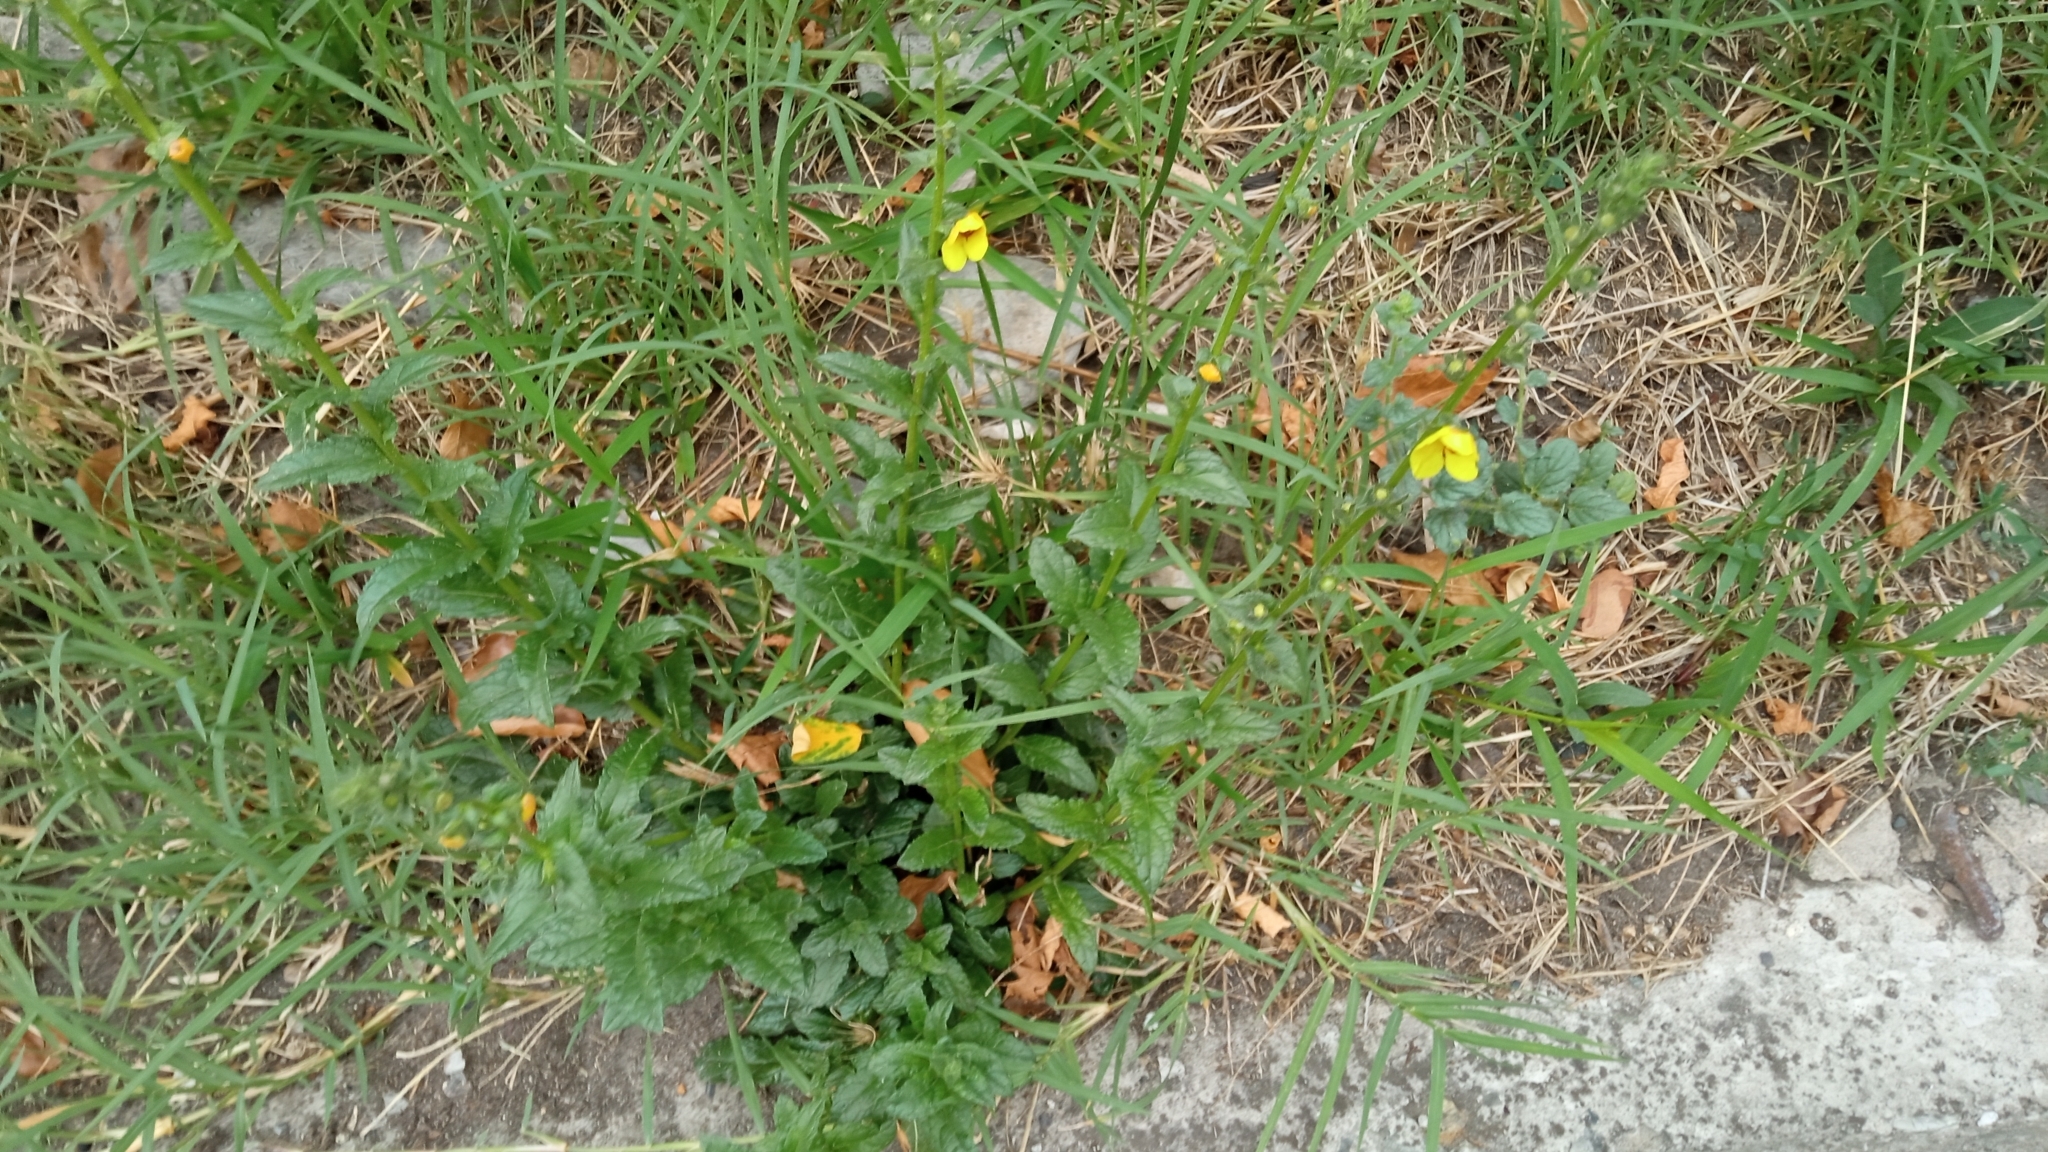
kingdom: Plantae
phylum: Tracheophyta
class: Magnoliopsida
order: Lamiales
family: Scrophulariaceae
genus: Verbascum
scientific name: Verbascum blattaria
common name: Moth mullein
